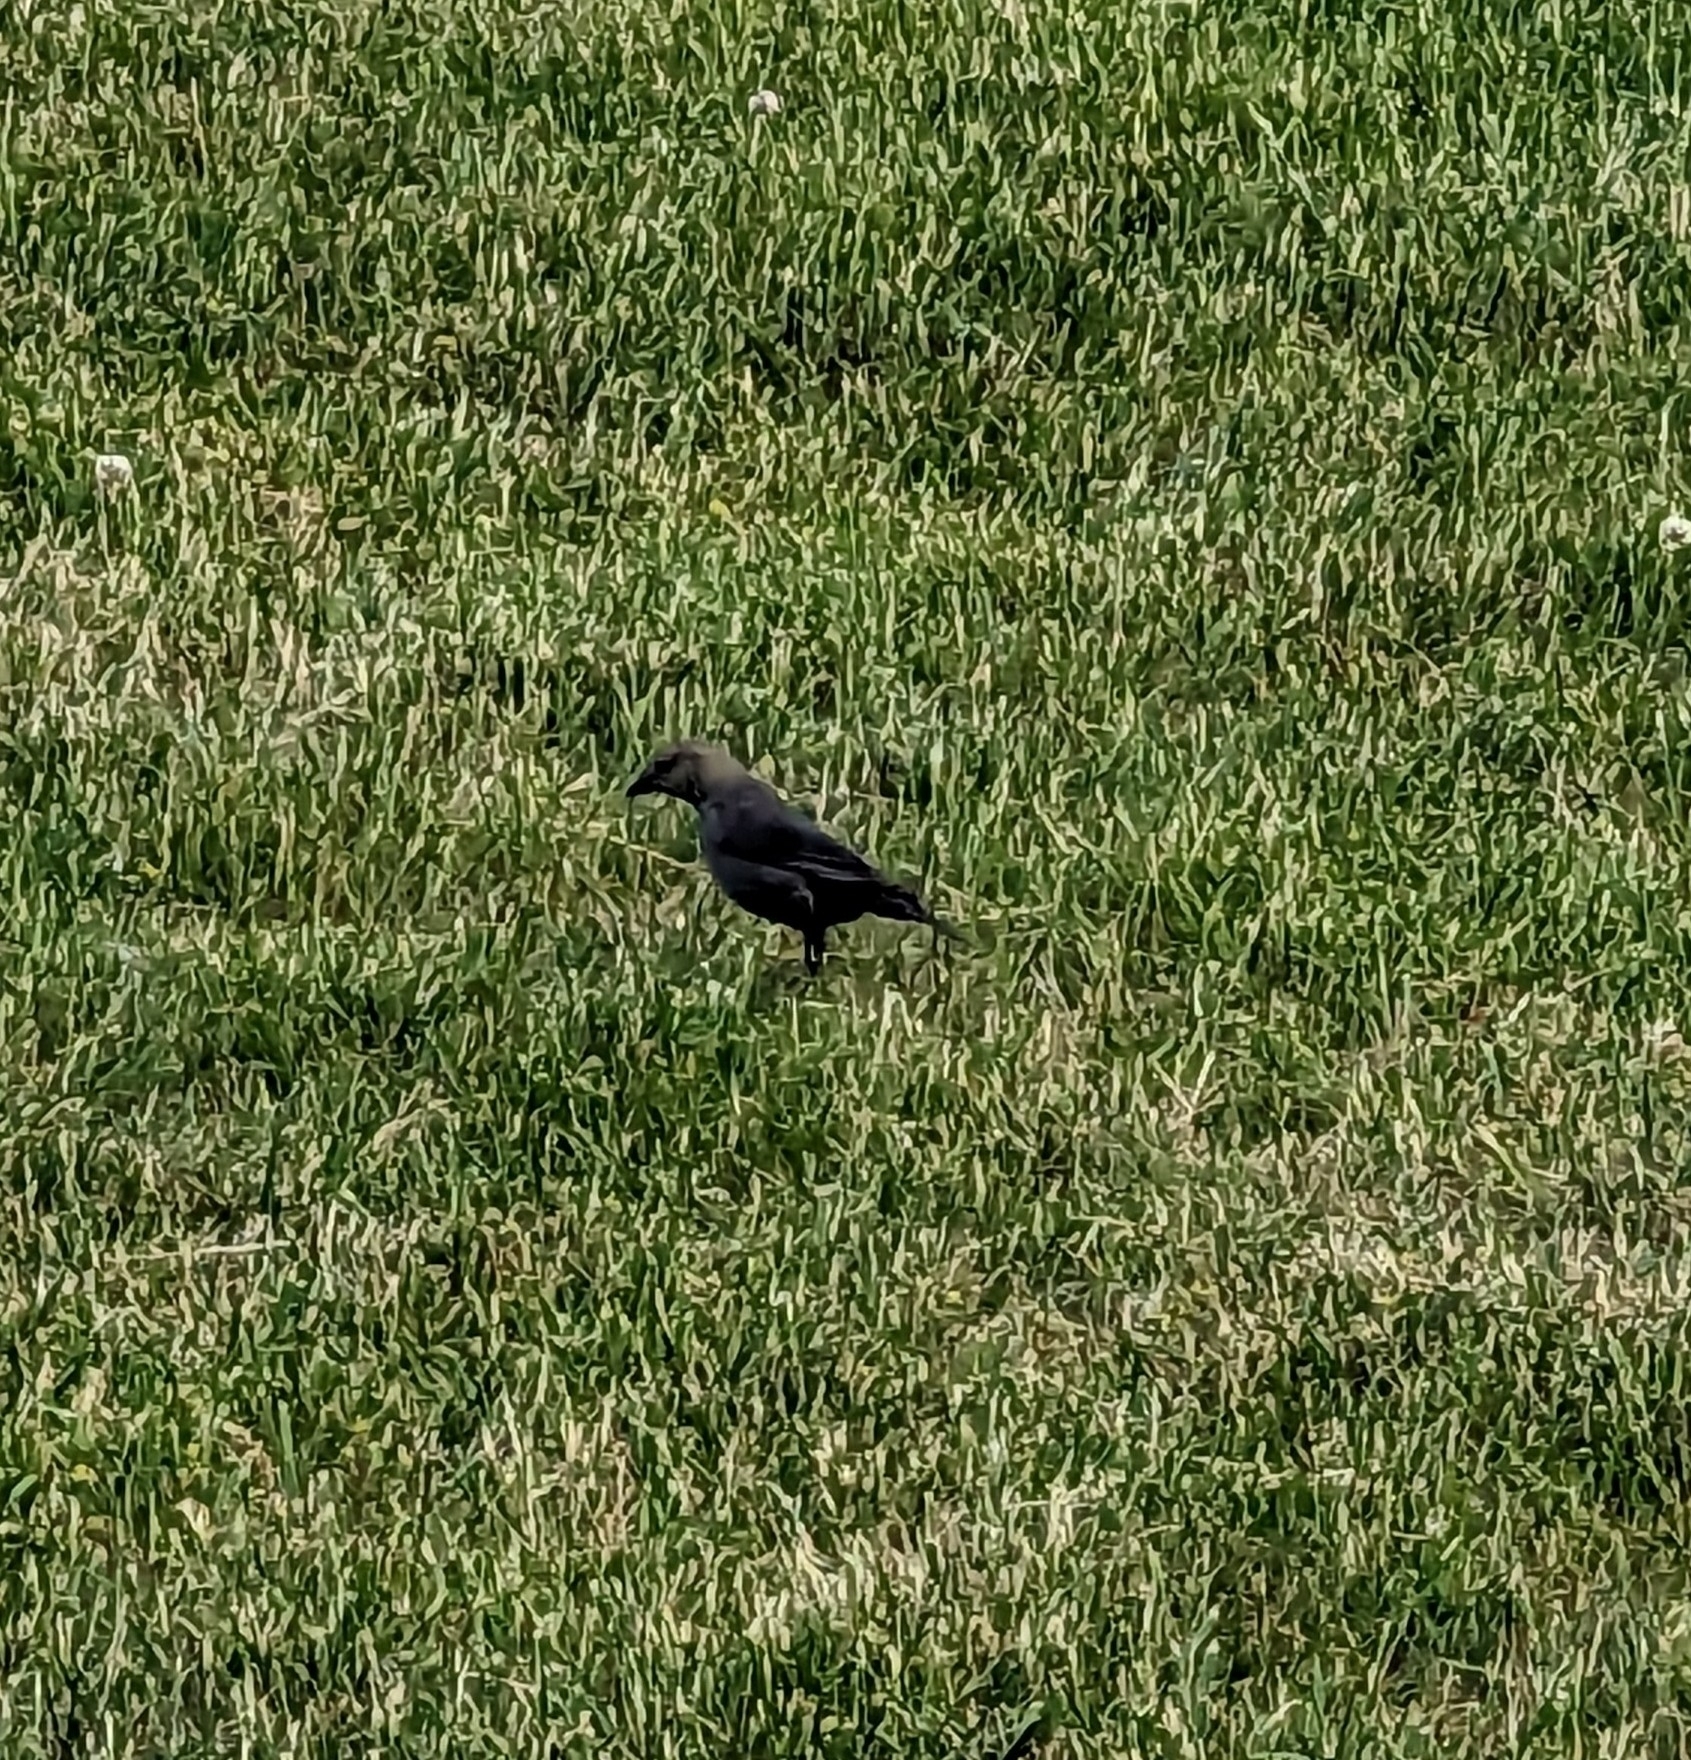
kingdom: Animalia
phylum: Chordata
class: Aves
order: Passeriformes
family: Icteridae
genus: Molothrus
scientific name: Molothrus ater
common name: Brown-headed cowbird
